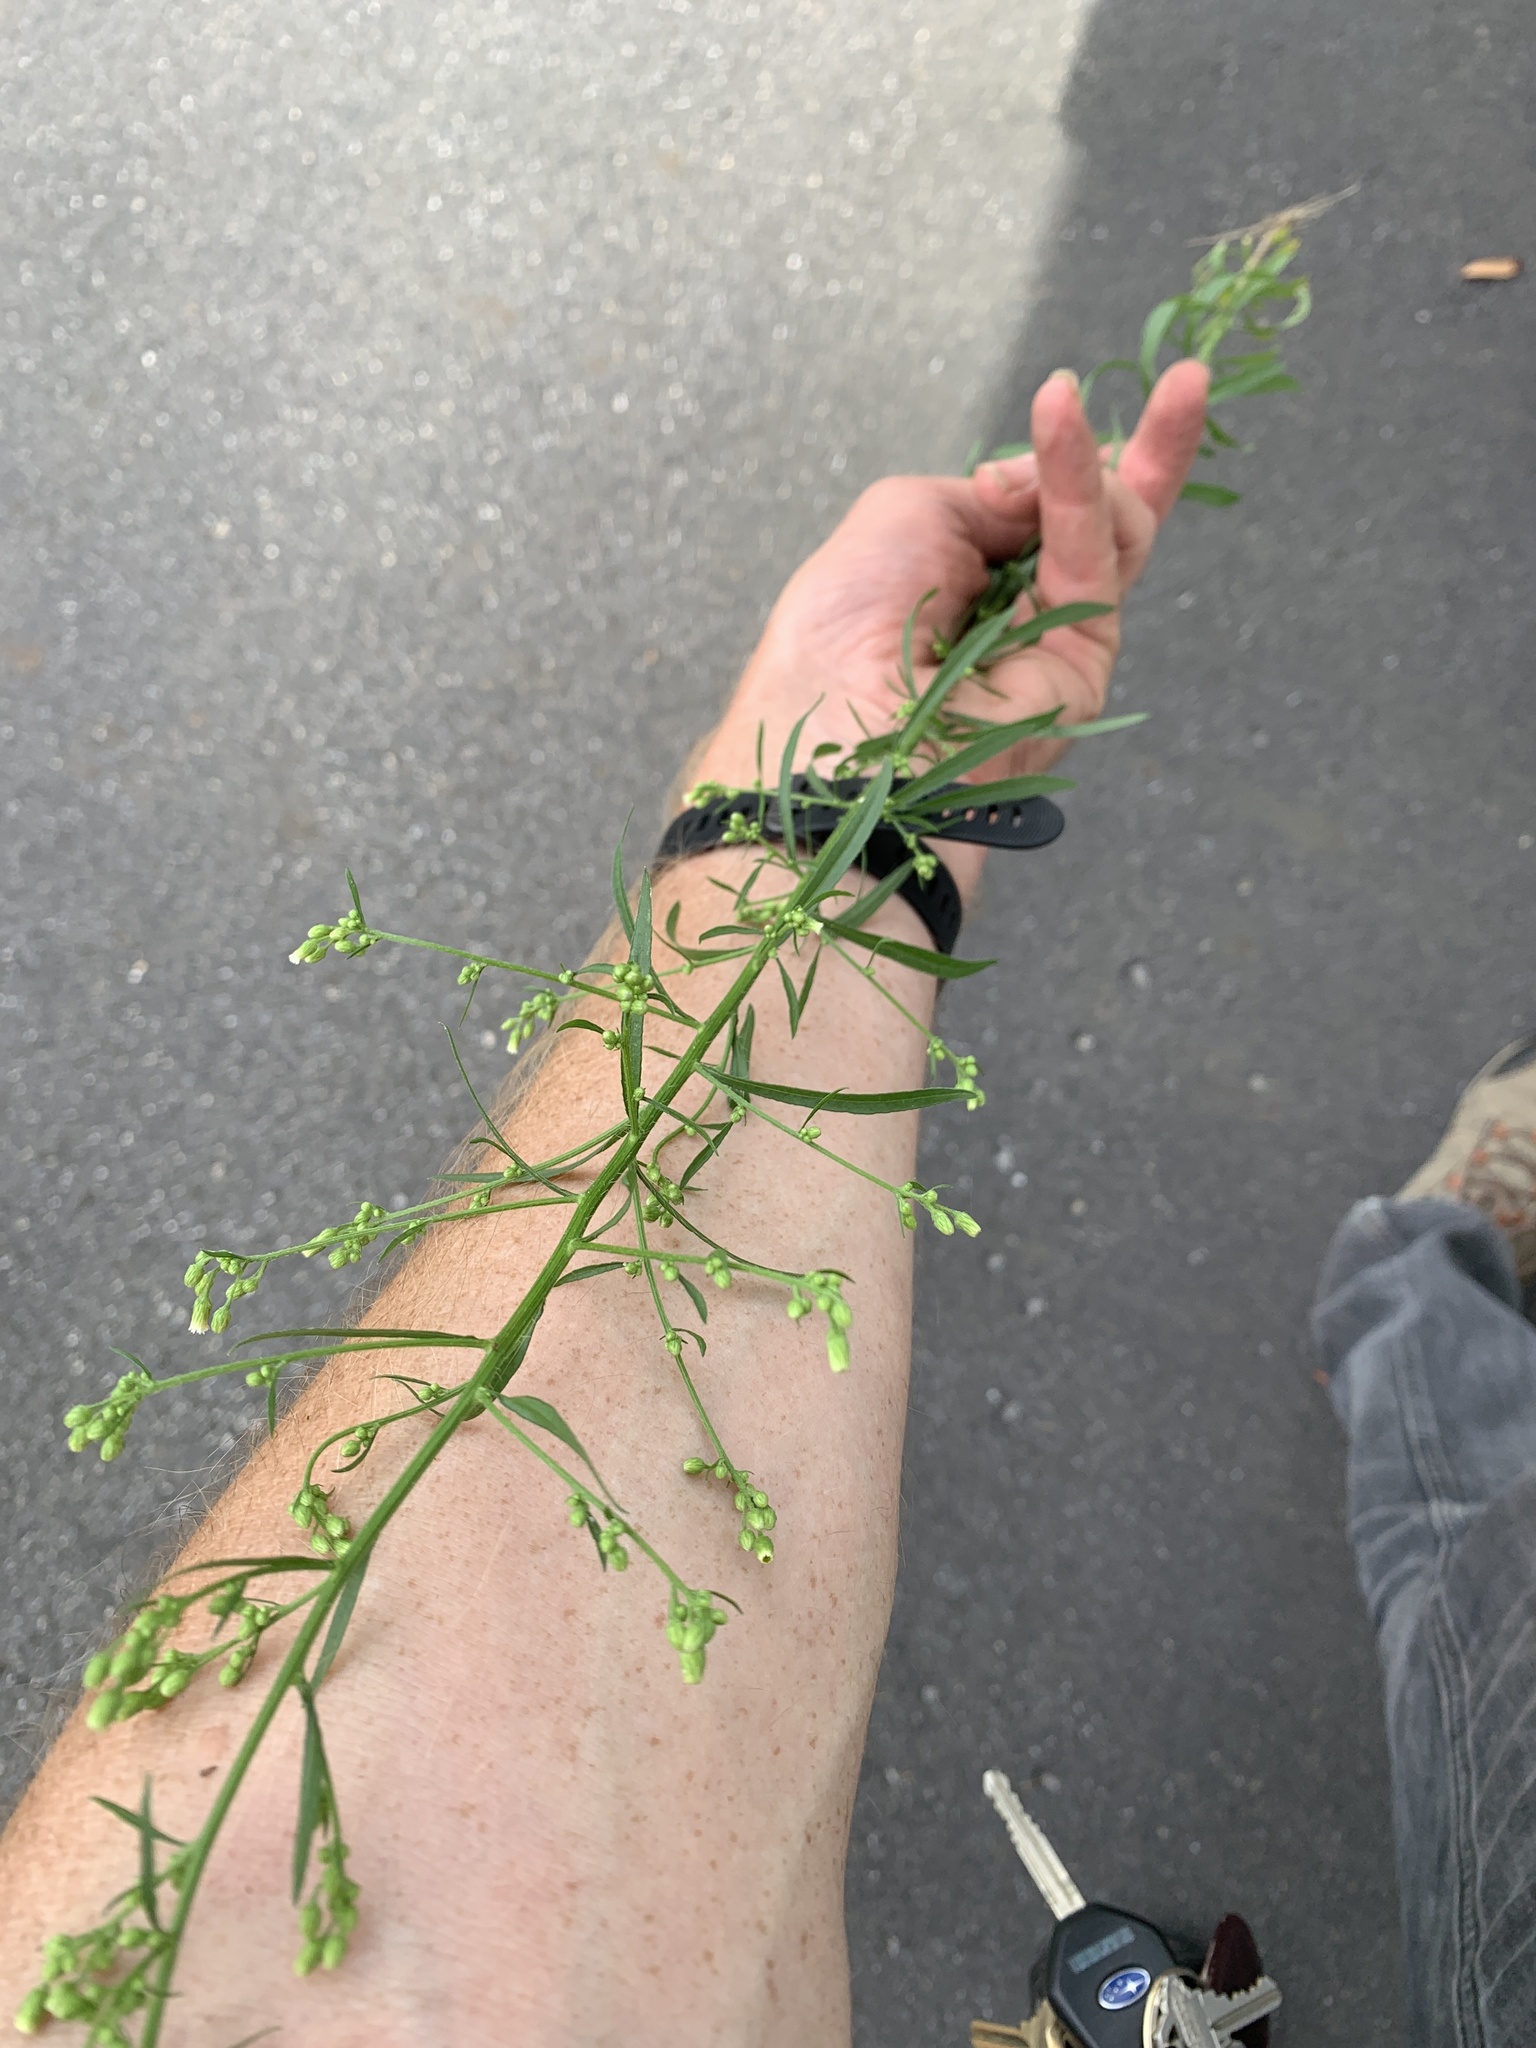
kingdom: Plantae
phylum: Tracheophyta
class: Magnoliopsida
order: Asterales
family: Asteraceae
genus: Erigeron
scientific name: Erigeron canadensis
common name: Canadian fleabane
